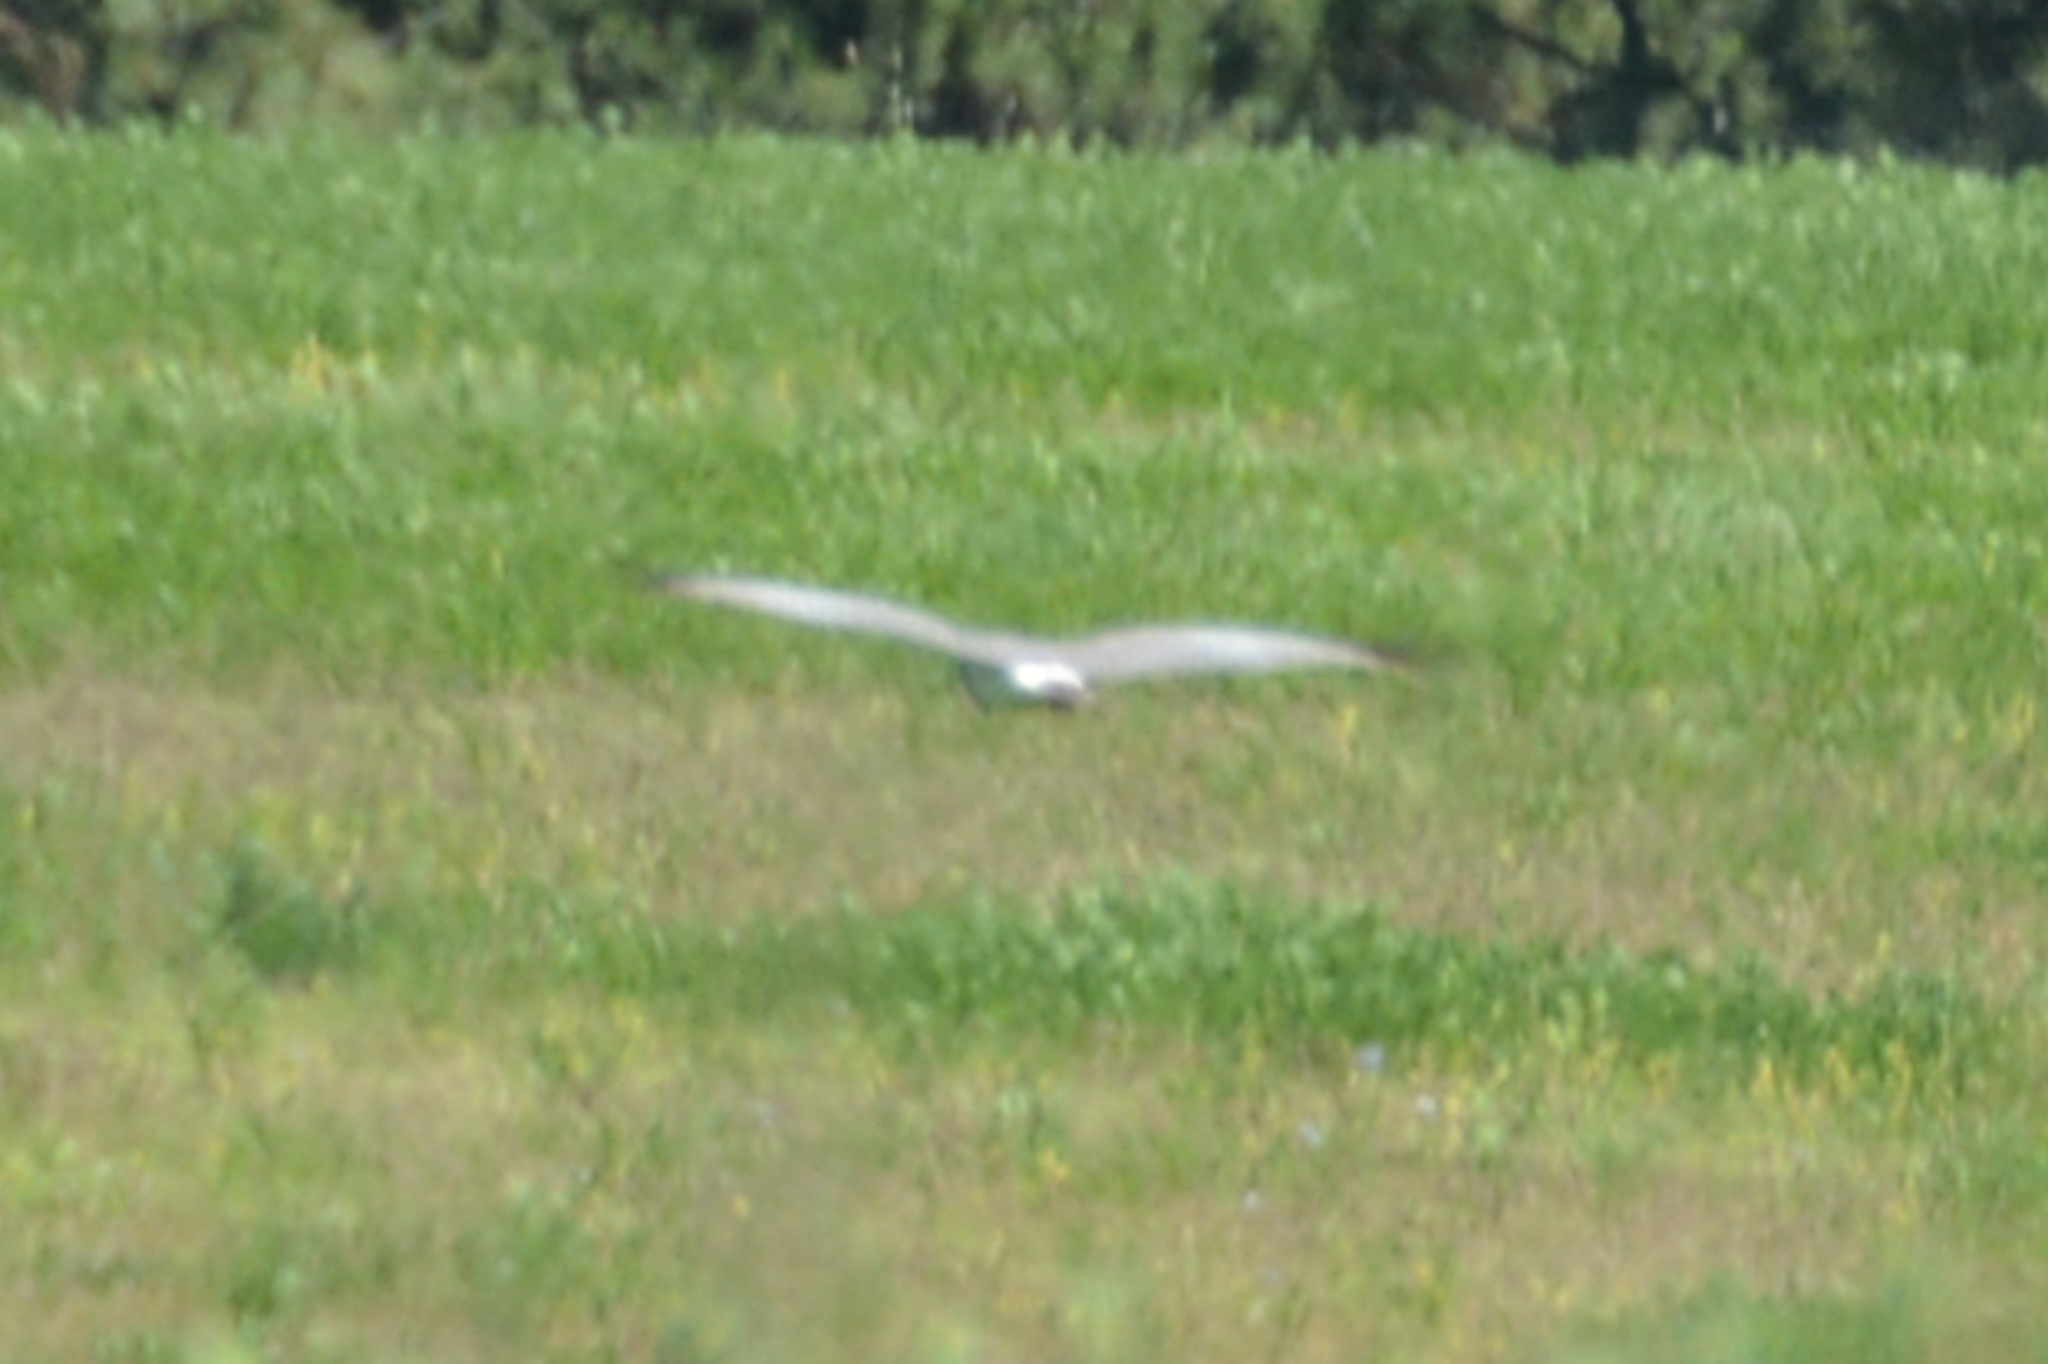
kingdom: Animalia
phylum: Chordata
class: Aves
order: Accipitriformes
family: Accipitridae
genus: Circus
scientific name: Circus cyaneus
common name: Hen harrier
